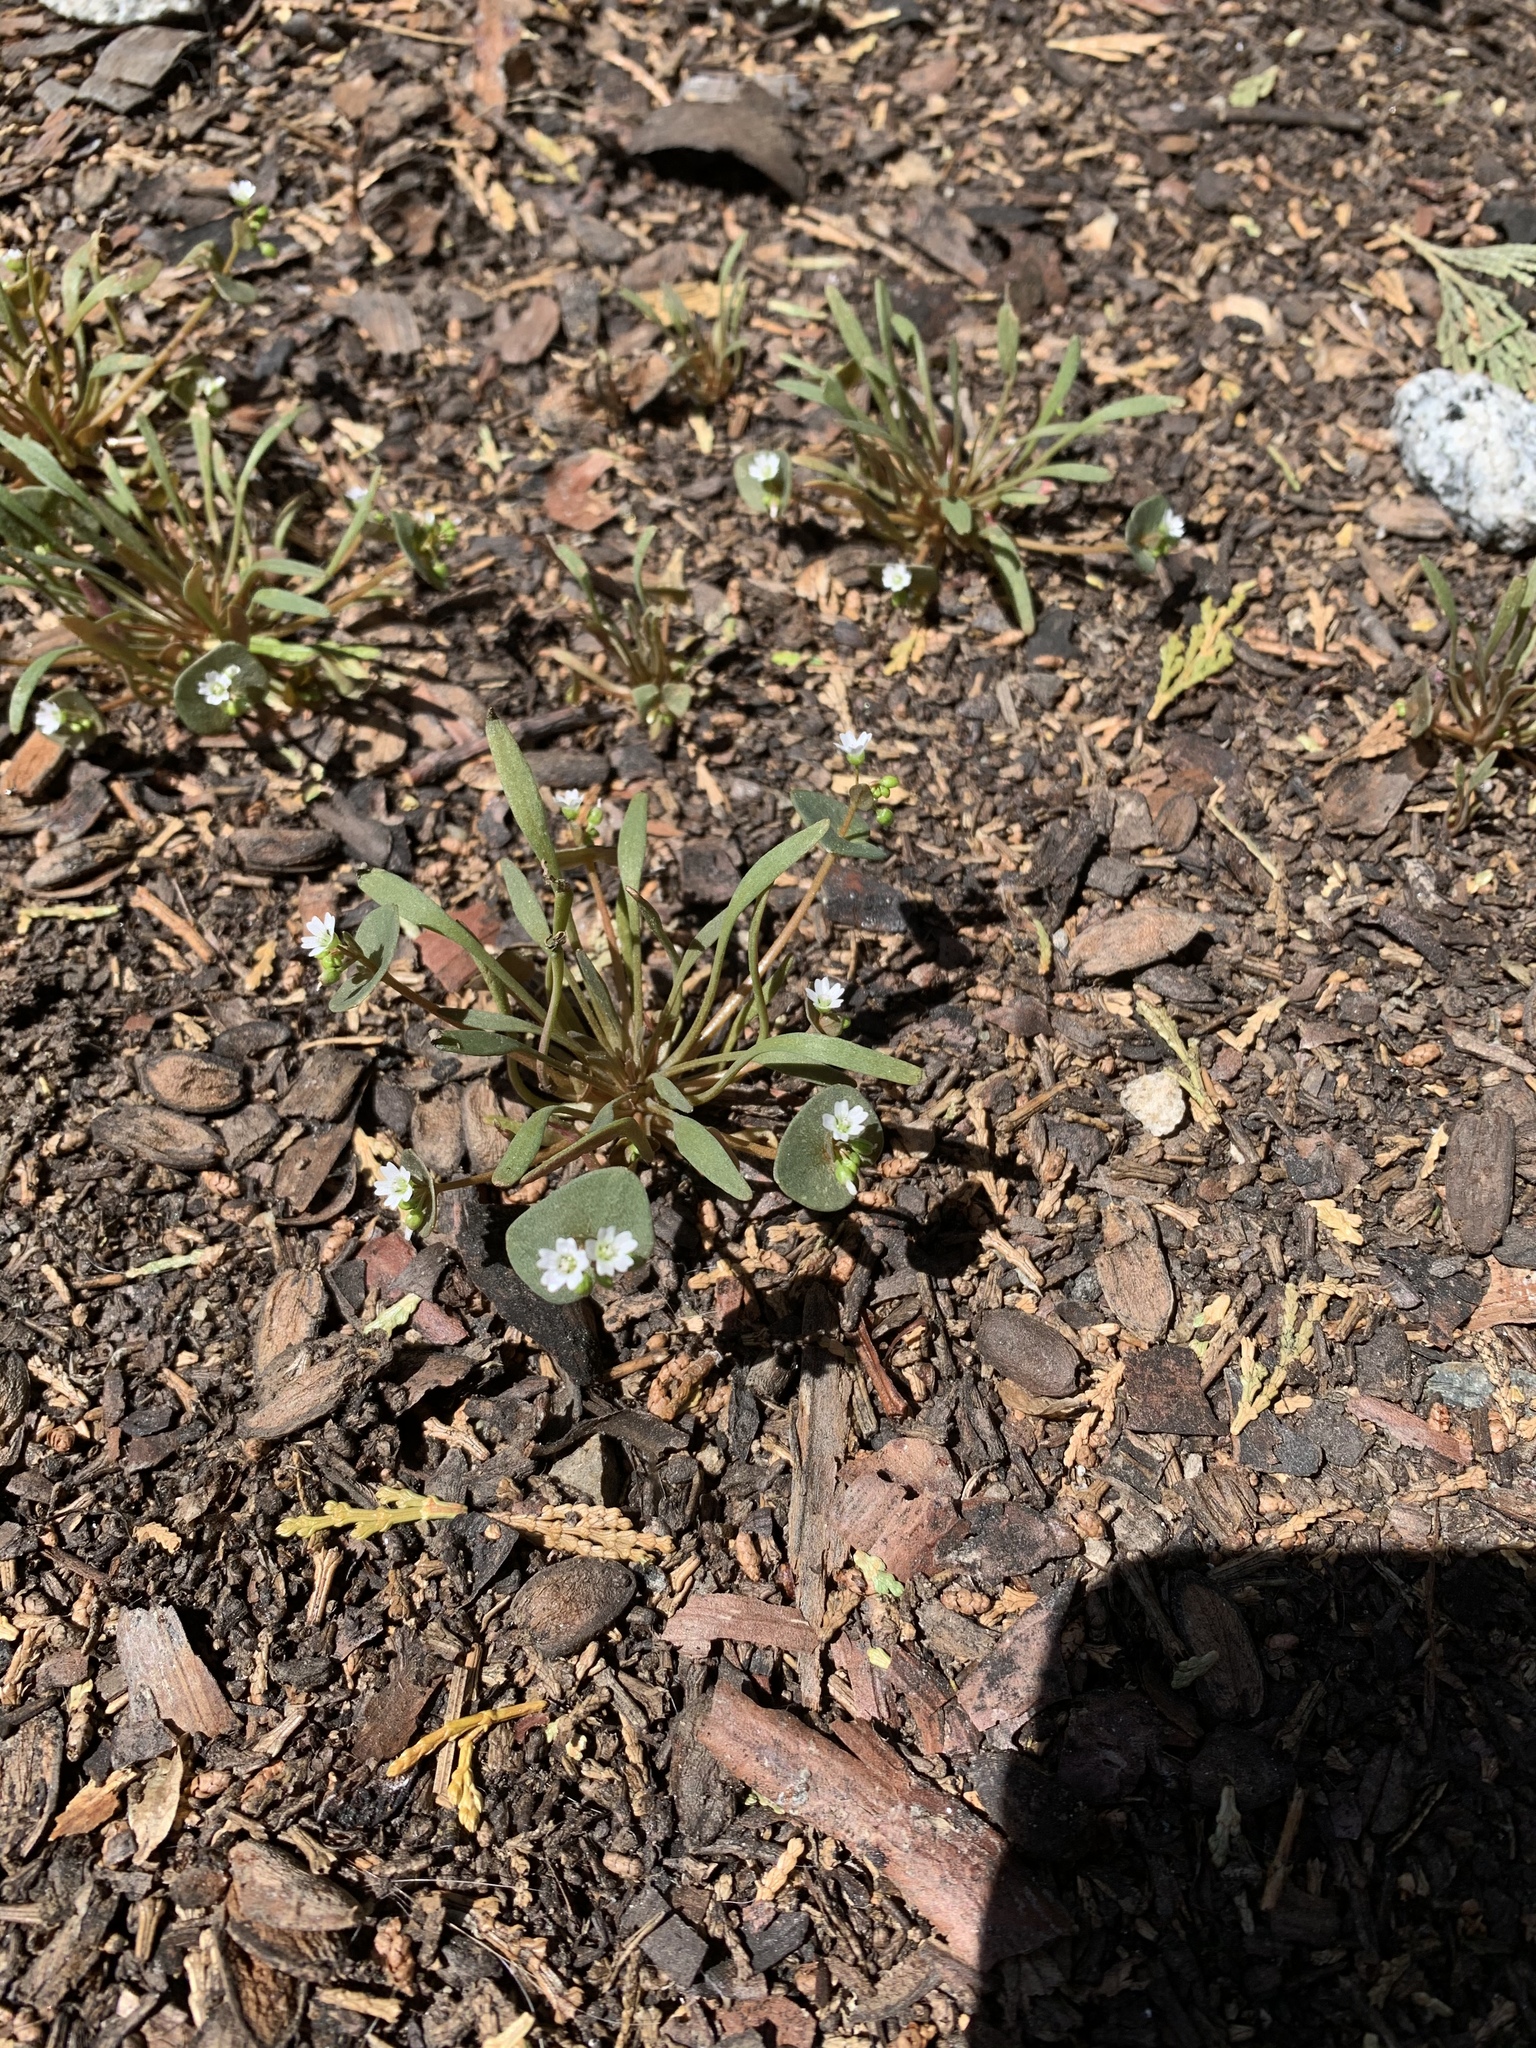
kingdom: Plantae
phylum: Tracheophyta
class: Magnoliopsida
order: Caryophyllales
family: Montiaceae
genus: Claytonia
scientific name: Claytonia parviflora
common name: Indian-lettuce
